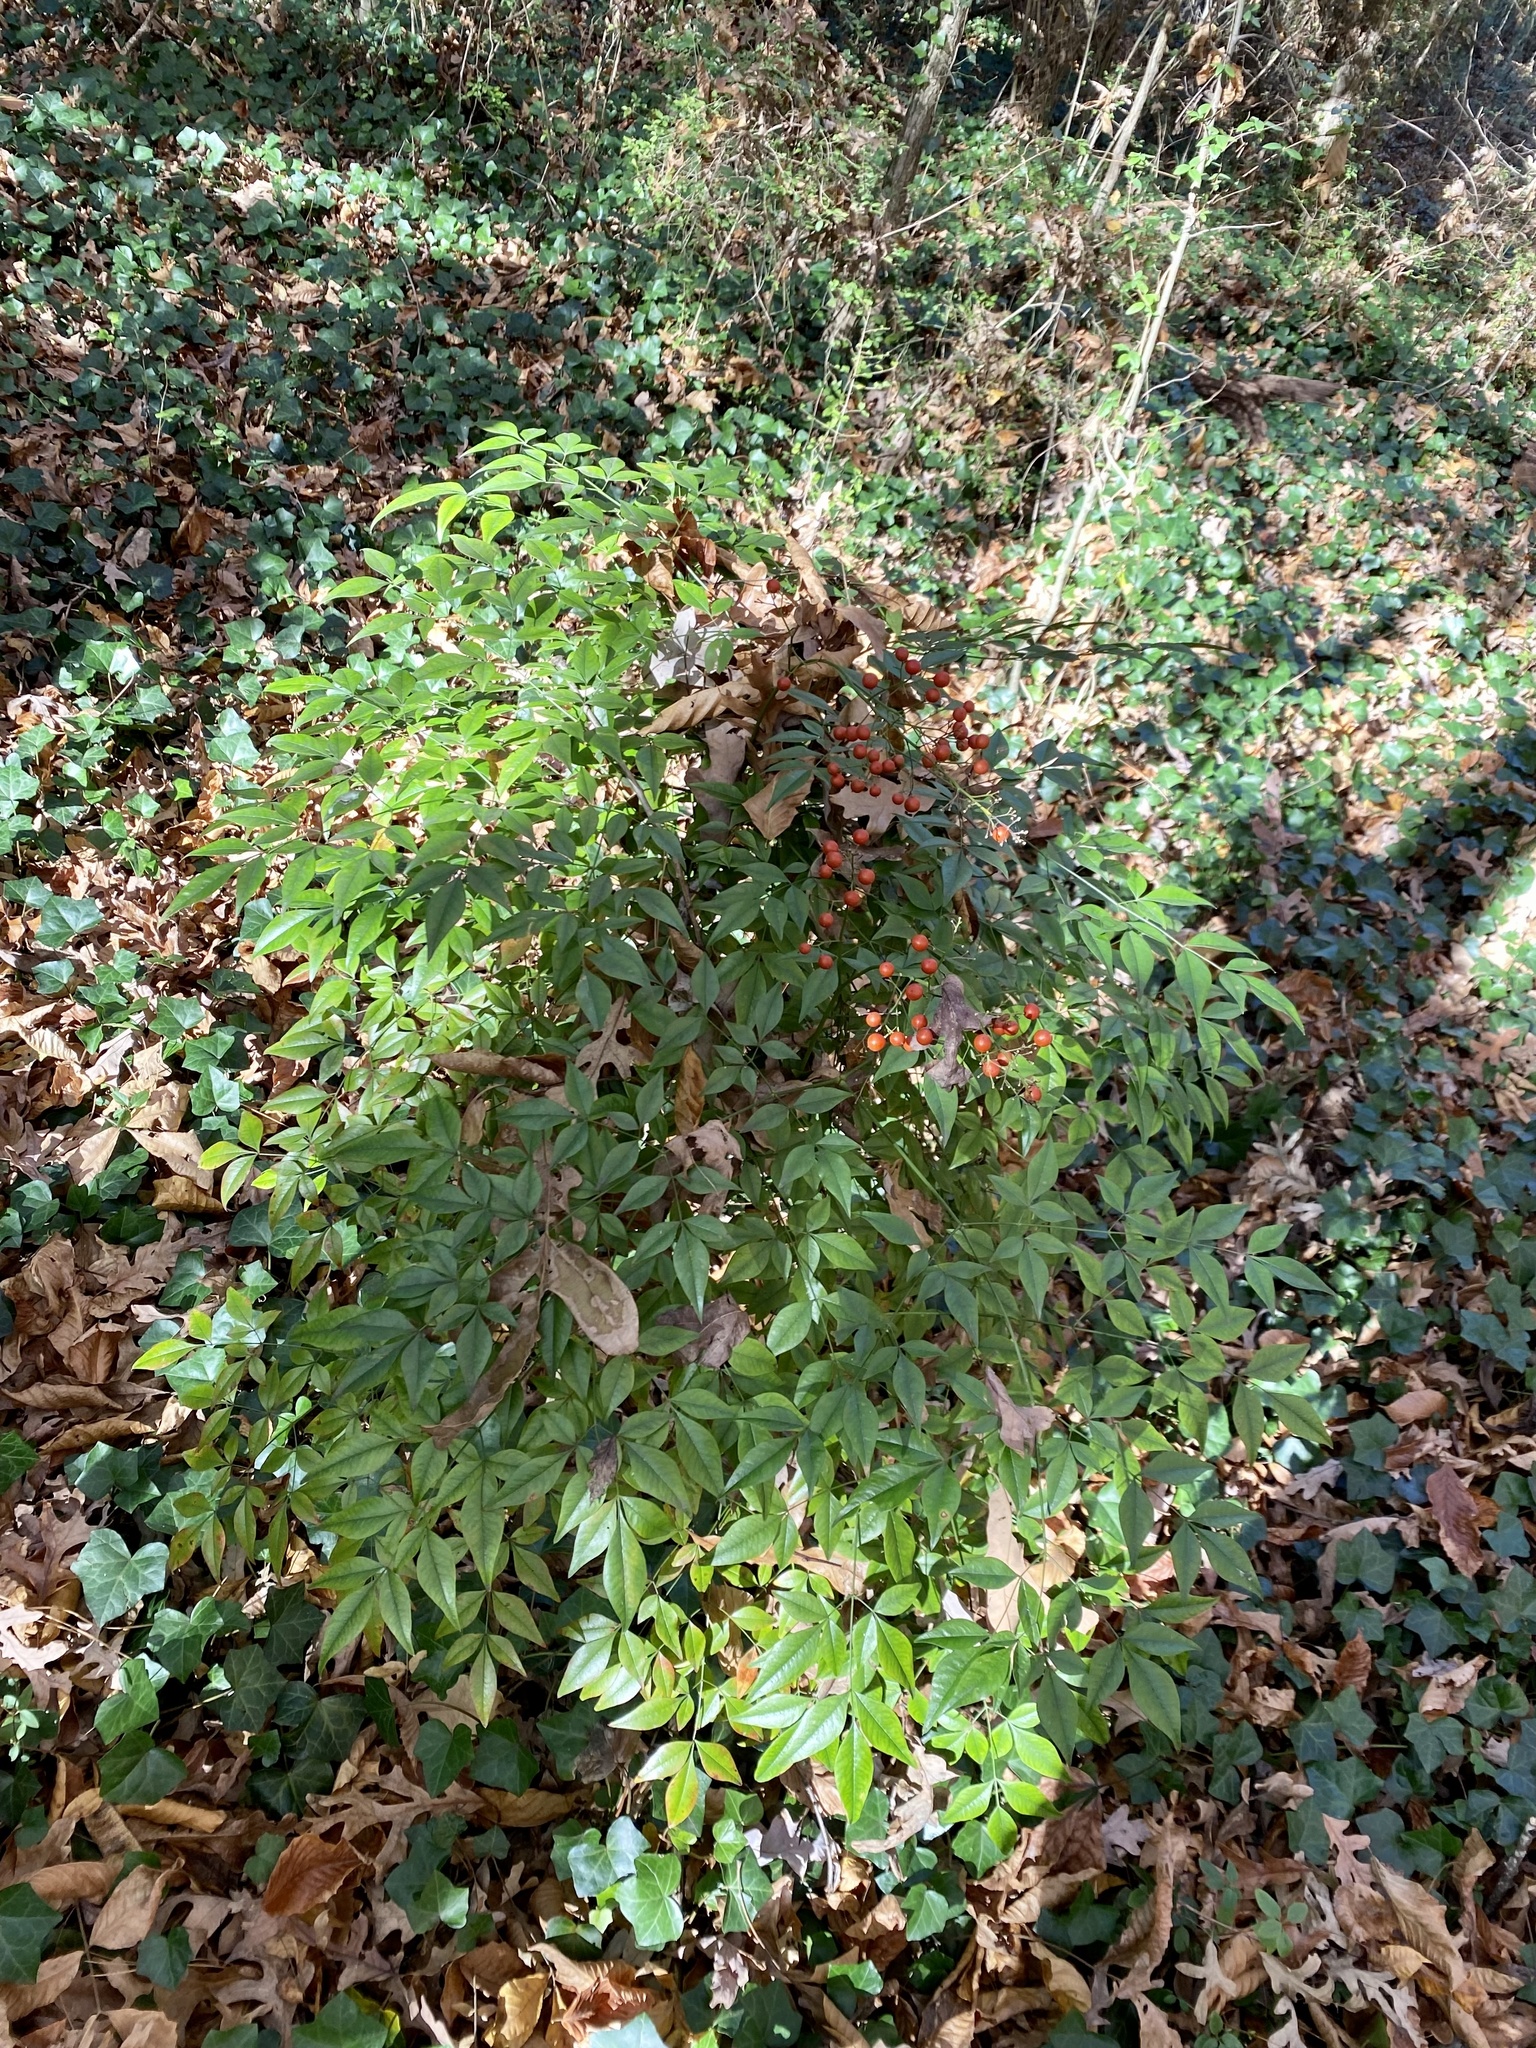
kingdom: Plantae
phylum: Tracheophyta
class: Magnoliopsida
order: Ranunculales
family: Berberidaceae
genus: Nandina
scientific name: Nandina domestica
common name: Sacred bamboo
